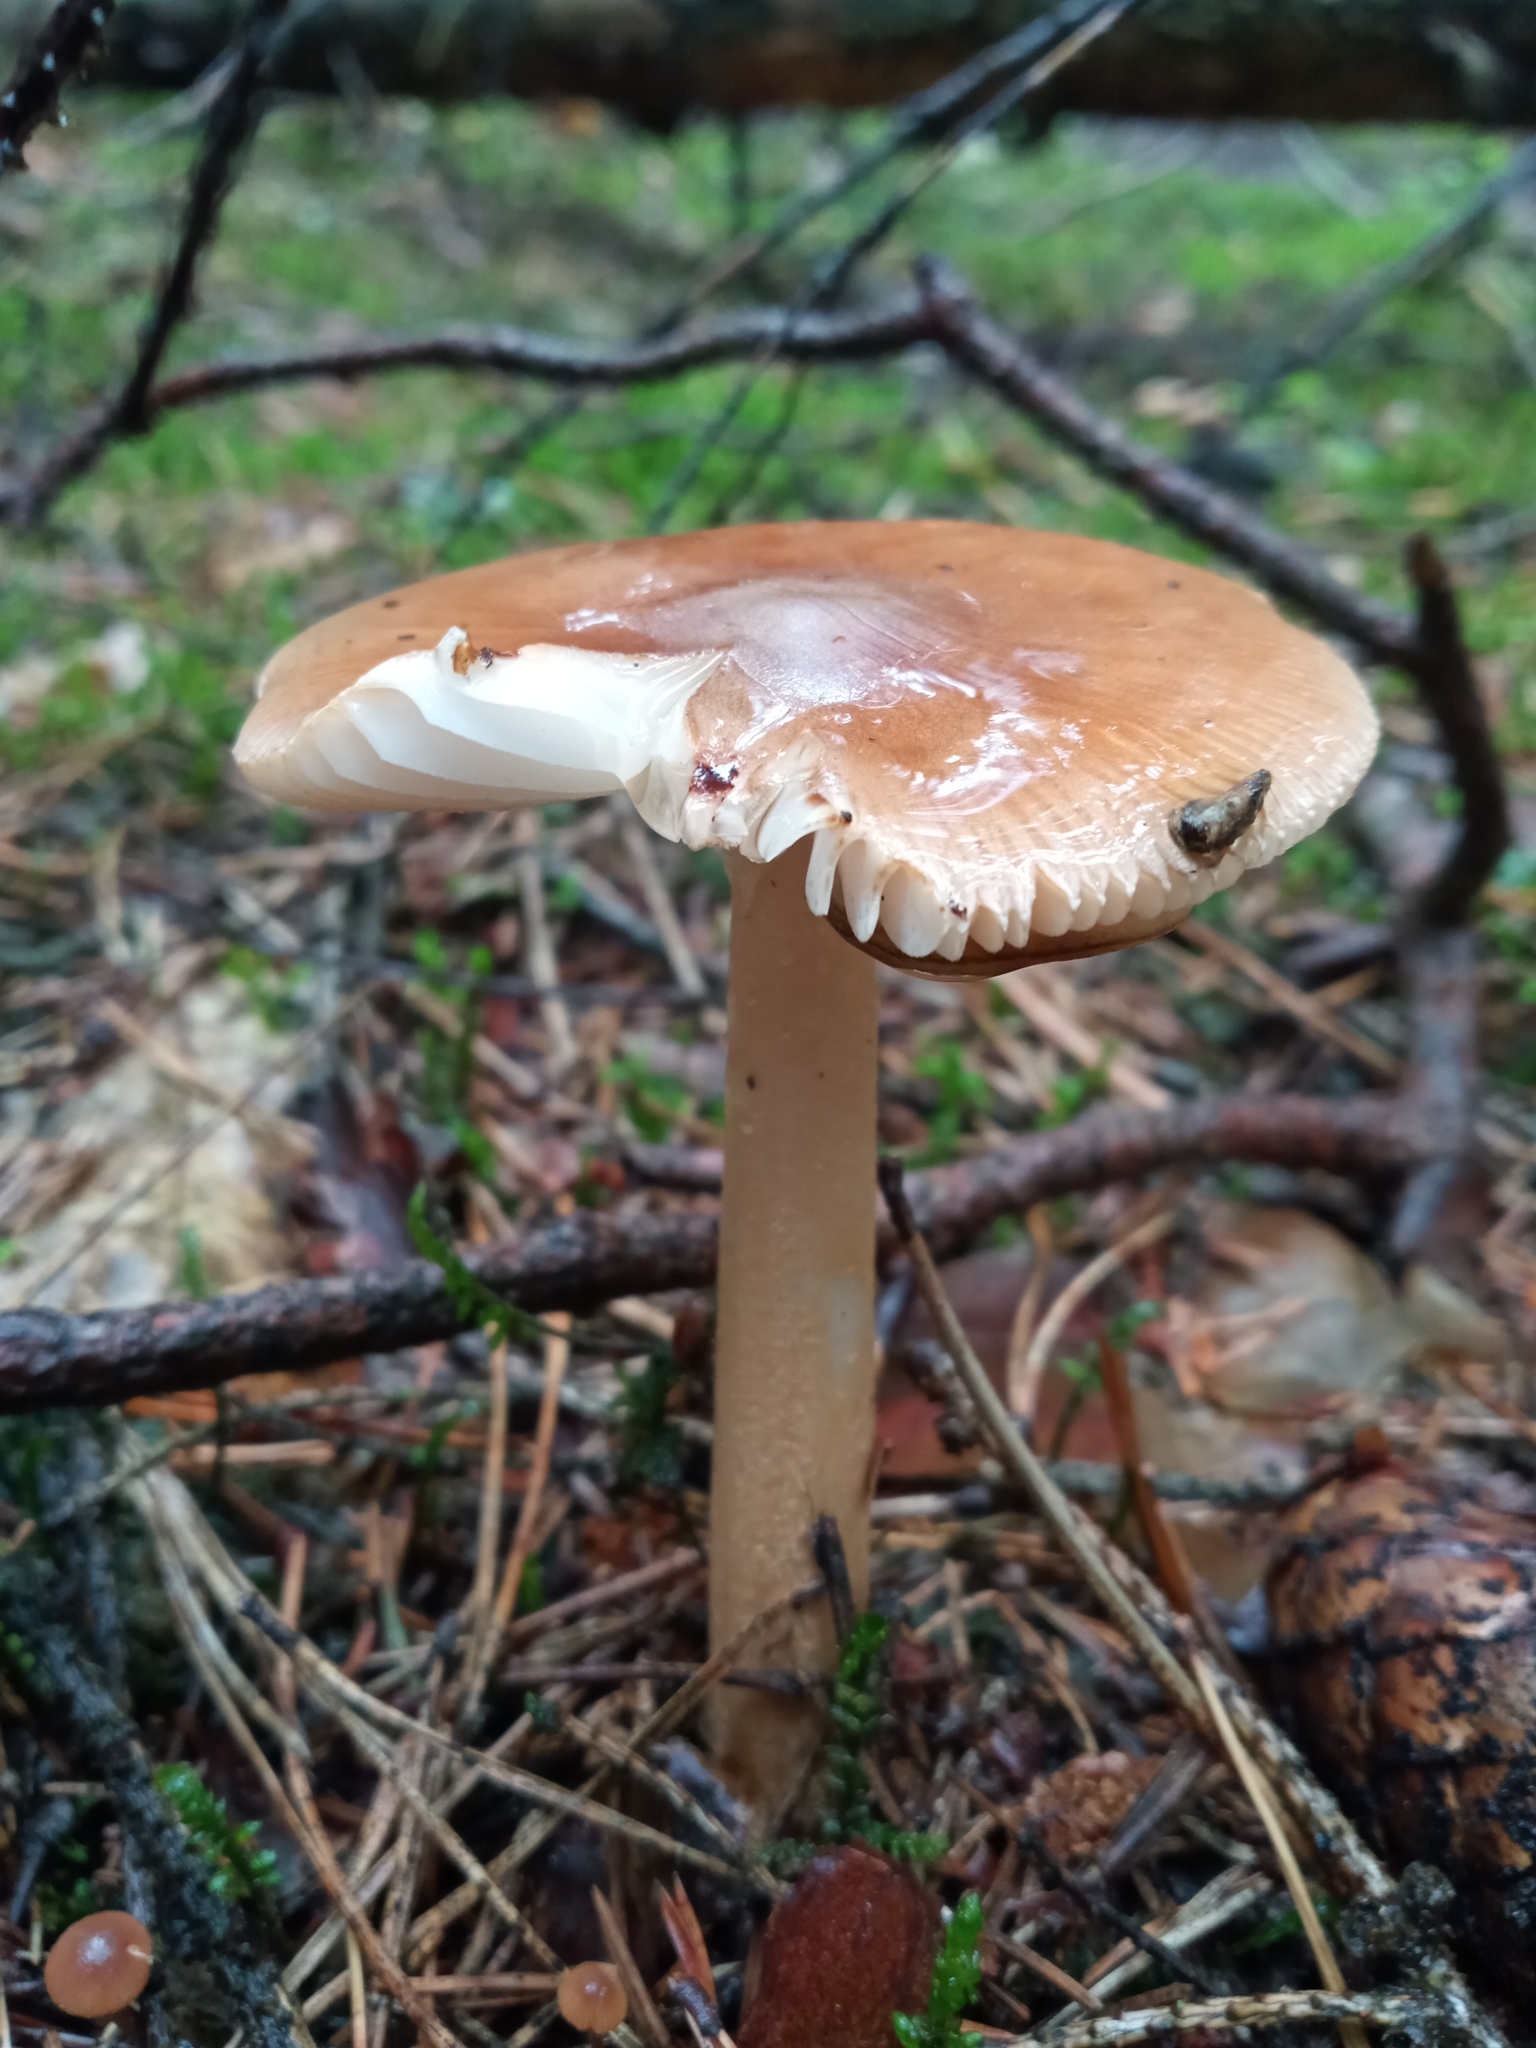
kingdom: Fungi
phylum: Basidiomycota
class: Agaricomycetes
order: Agaricales
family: Amanitaceae
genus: Amanita
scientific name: Amanita fulva
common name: Tawny grisette
